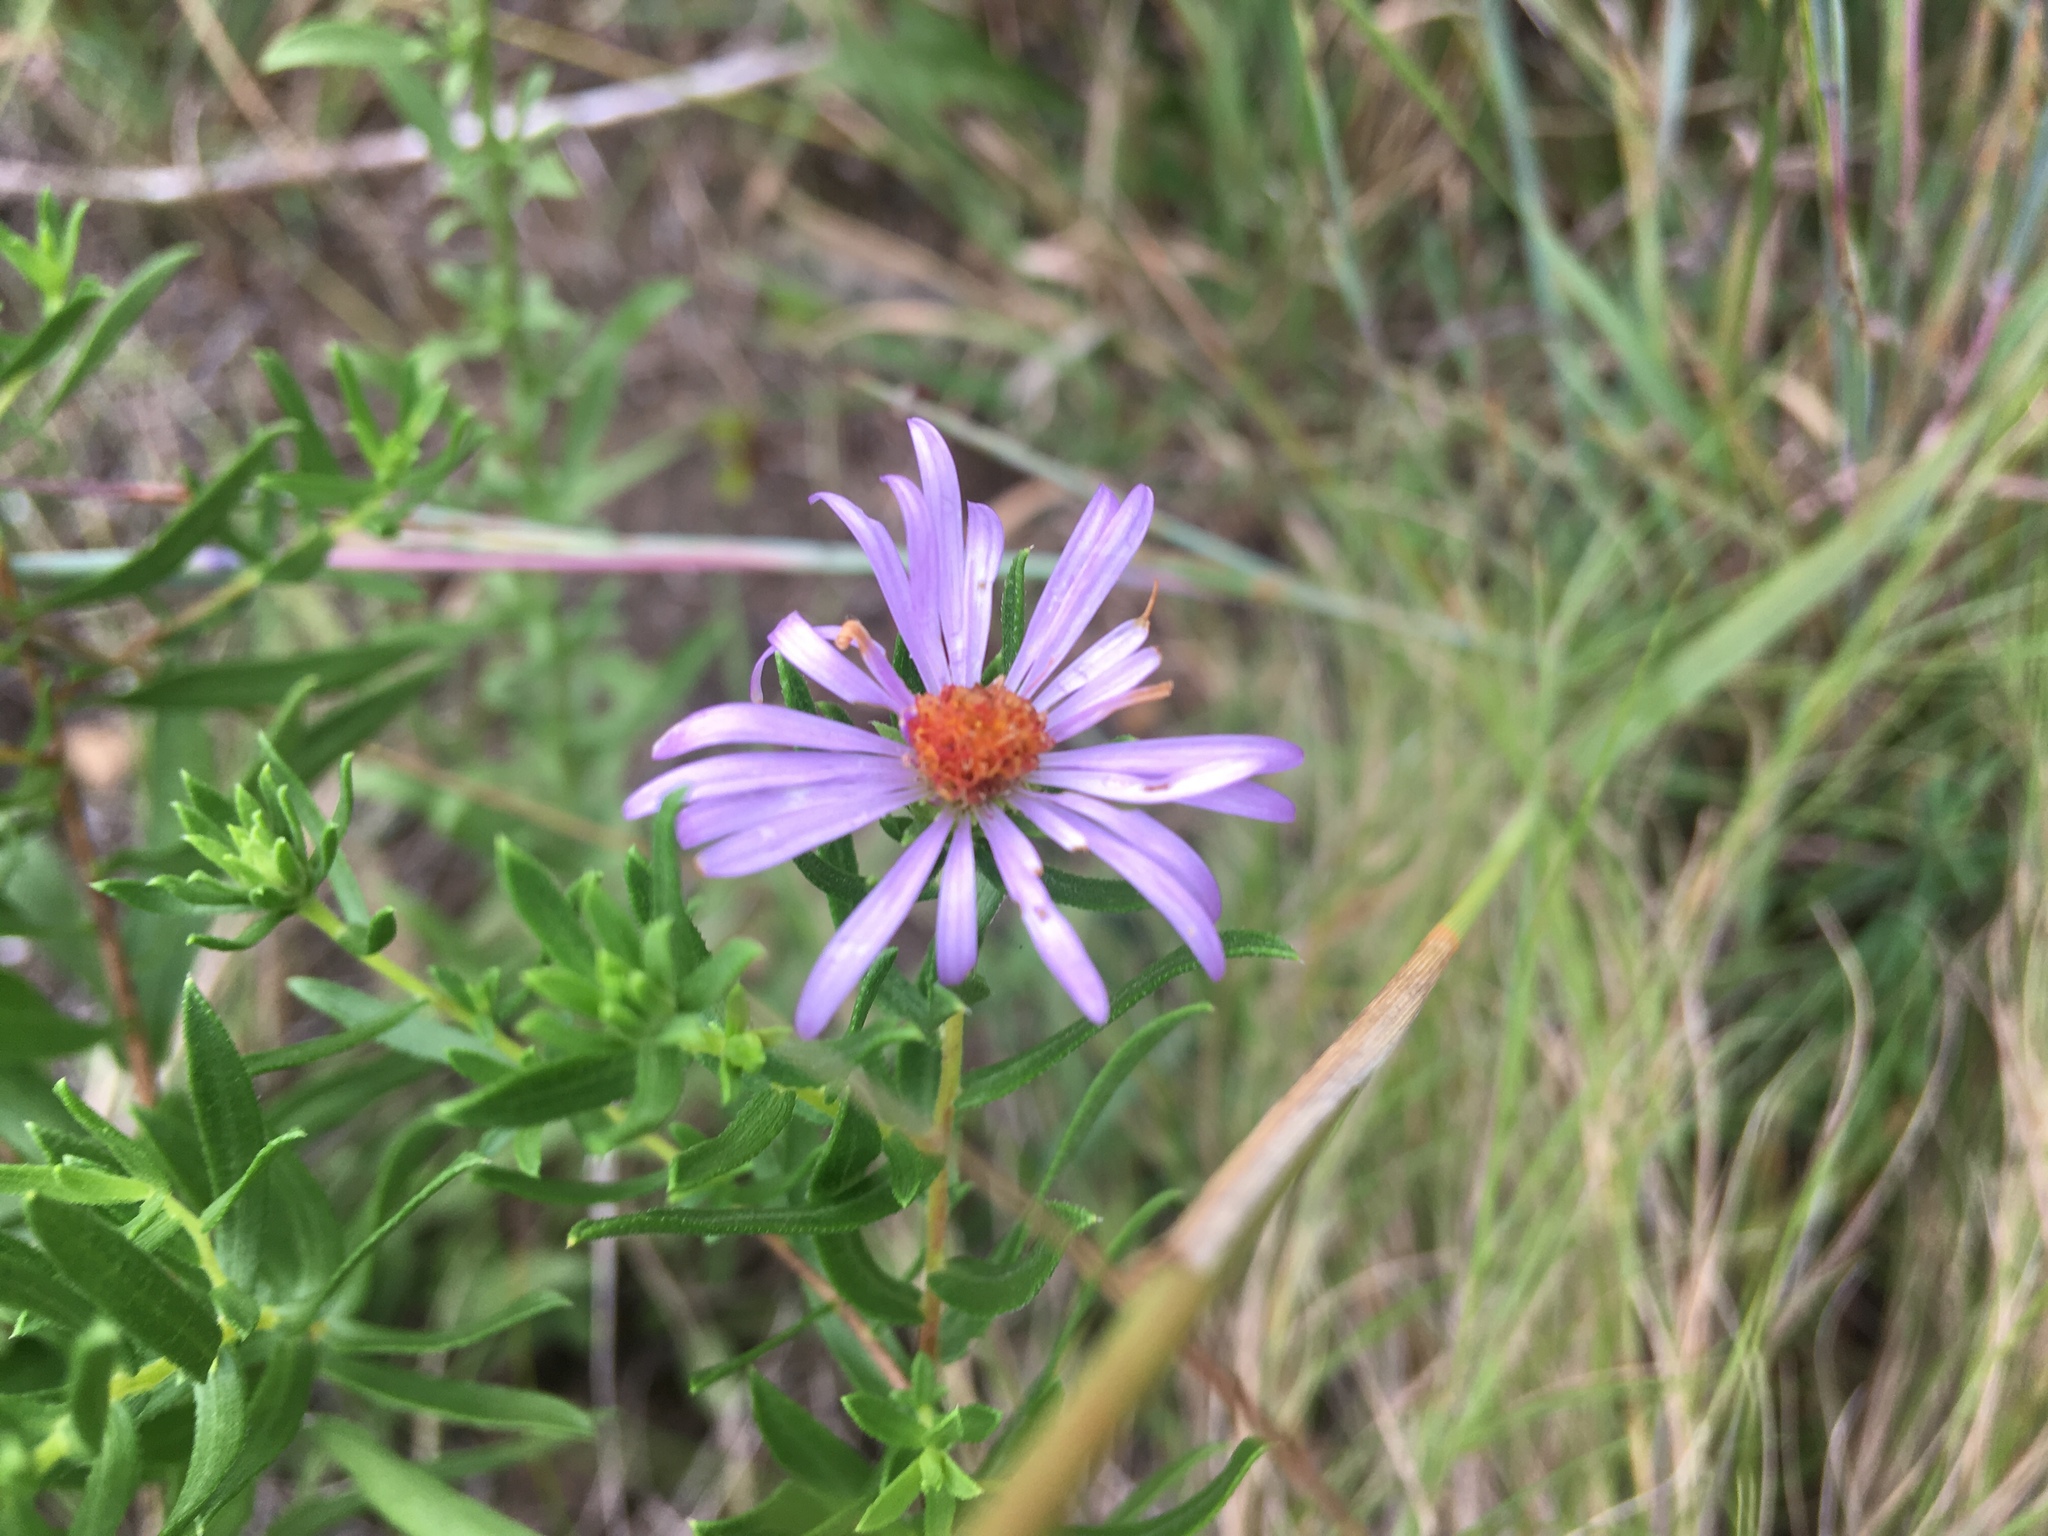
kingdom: Plantae
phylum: Tracheophyta
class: Magnoliopsida
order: Asterales
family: Asteraceae
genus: Symphyotrichum
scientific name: Symphyotrichum oblongifolium
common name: Aromatic aster
